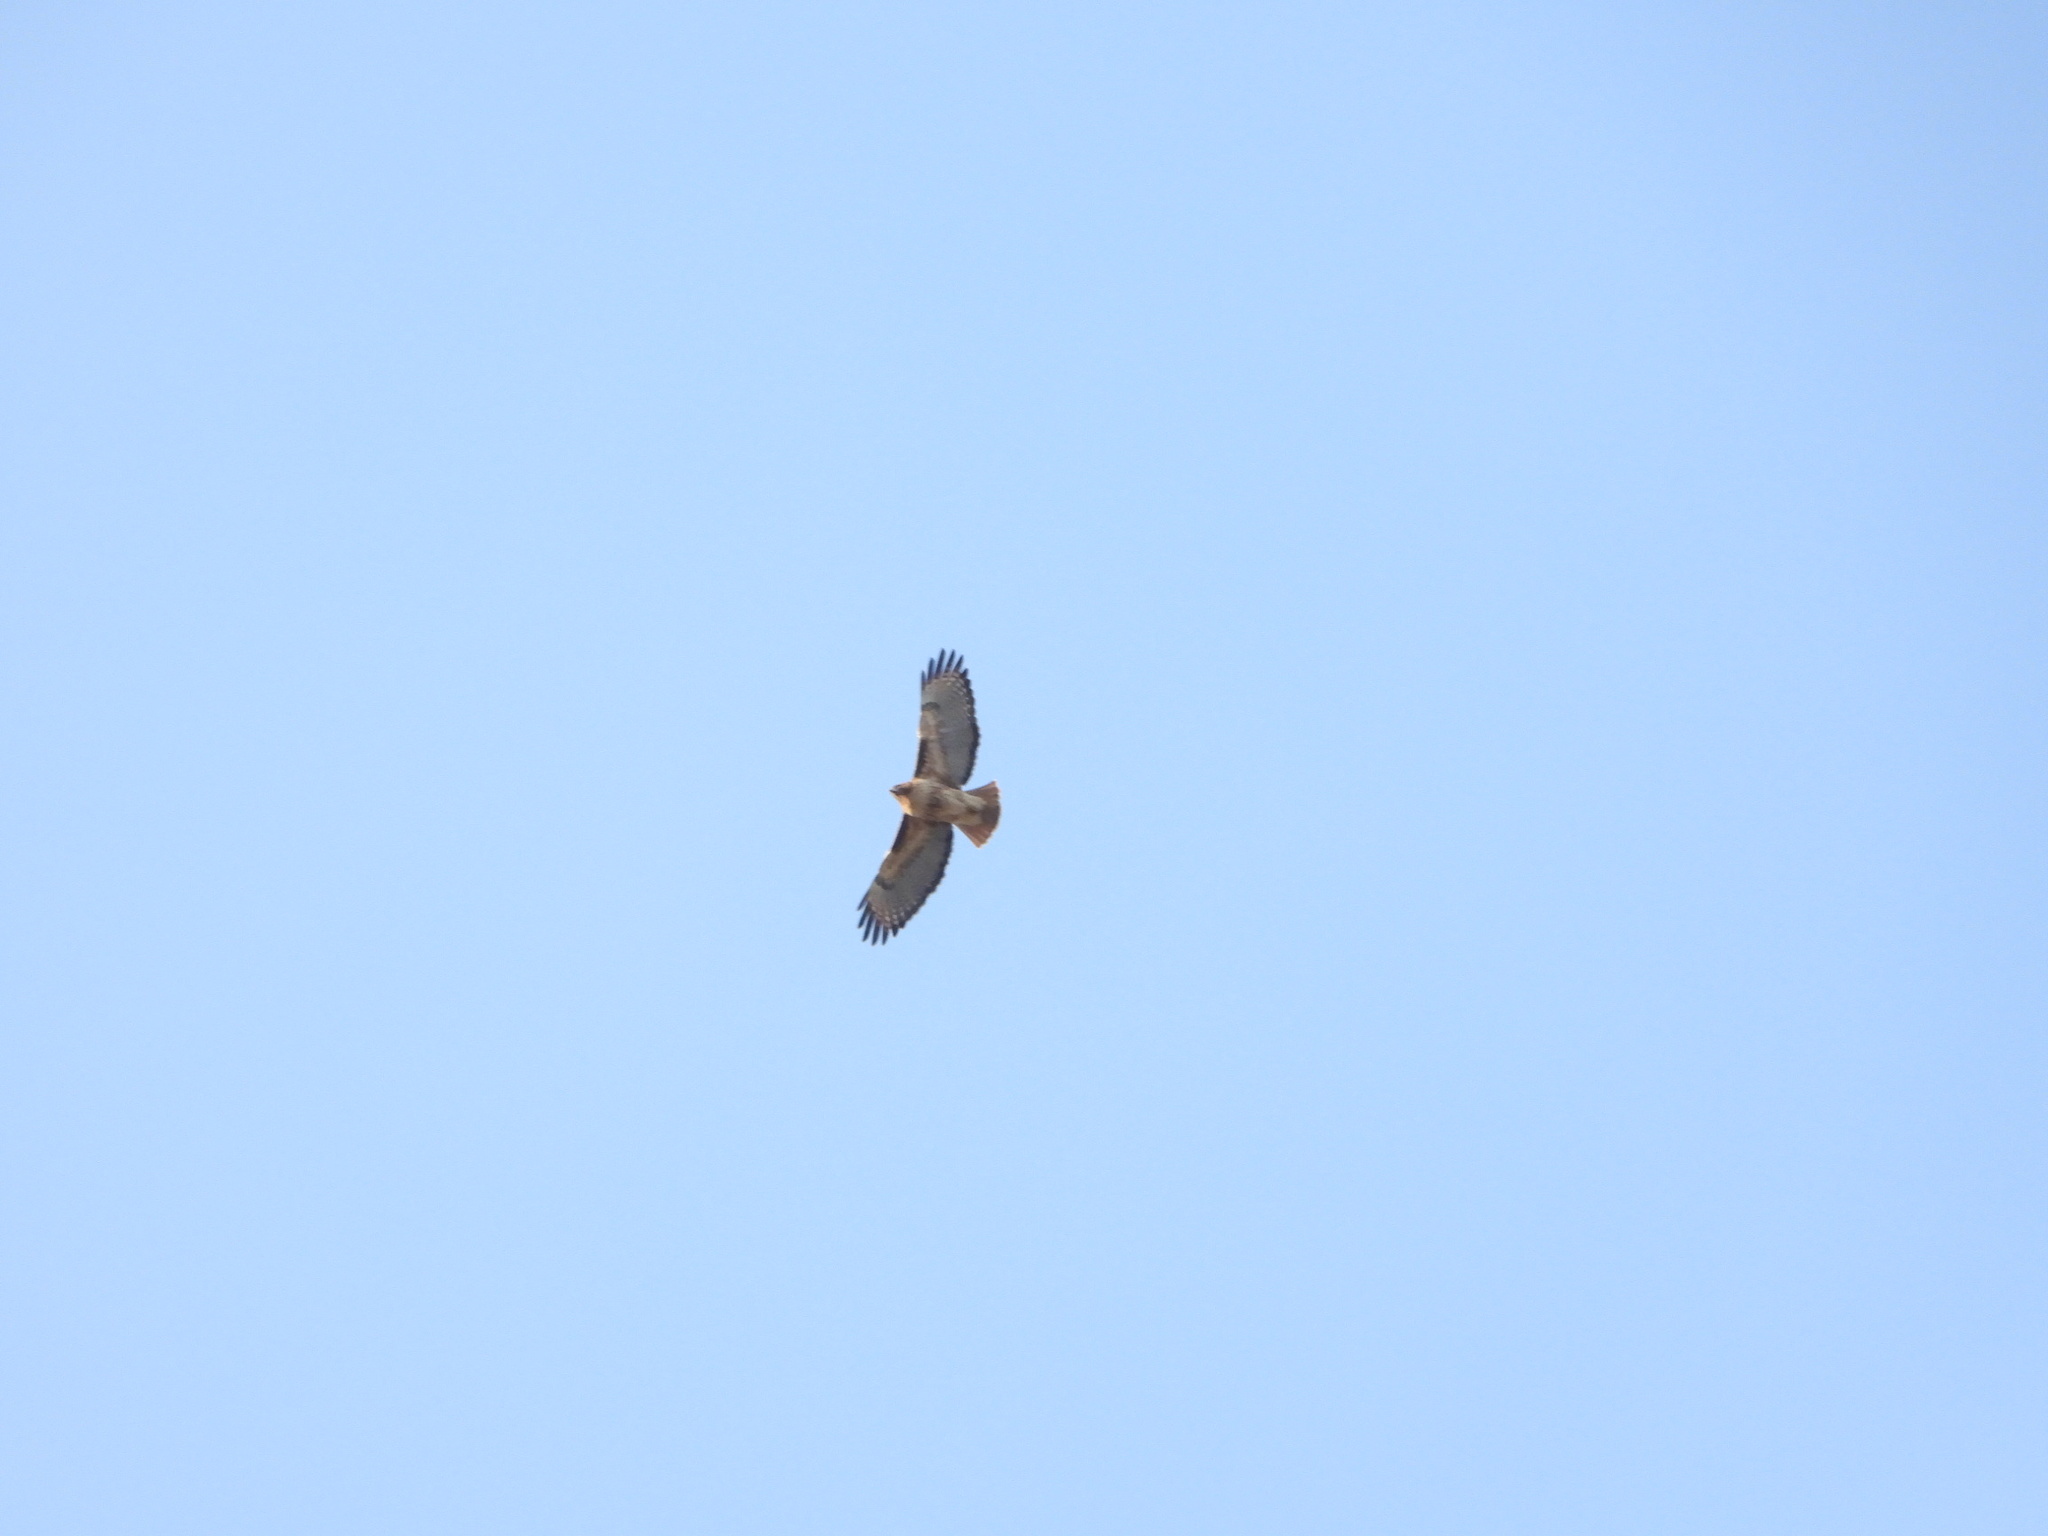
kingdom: Animalia
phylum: Chordata
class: Aves
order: Accipitriformes
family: Accipitridae
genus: Buteo
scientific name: Buteo jamaicensis
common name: Red-tailed hawk
